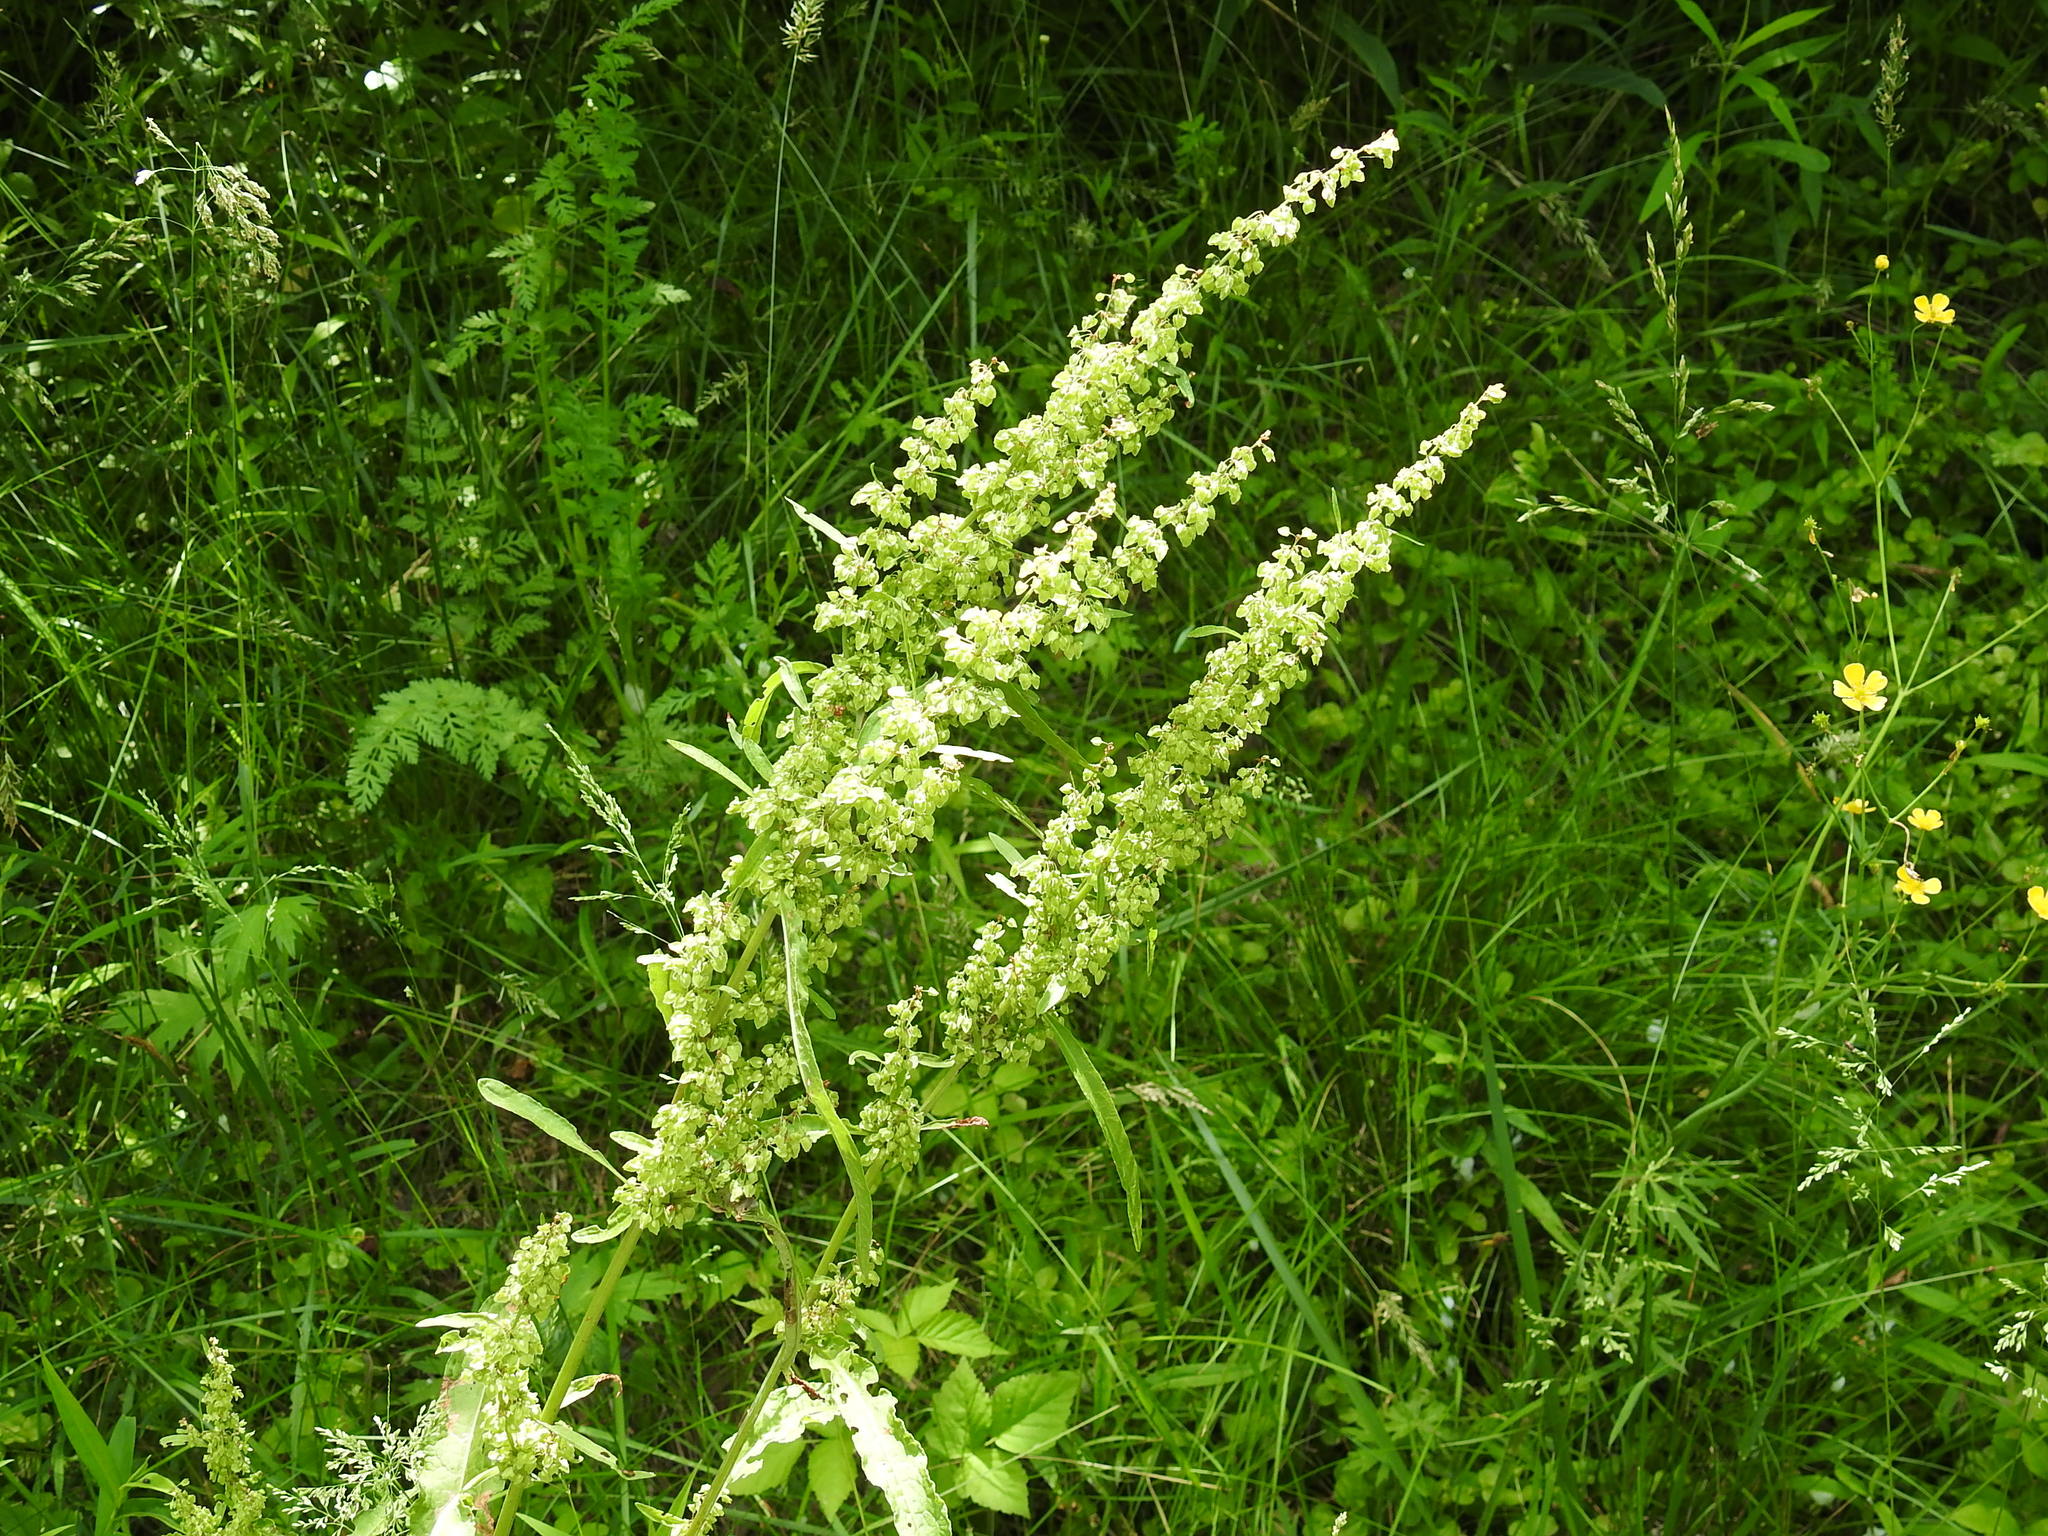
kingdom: Plantae
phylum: Tracheophyta
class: Magnoliopsida
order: Caryophyllales
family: Polygonaceae
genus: Rumex
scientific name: Rumex crispus
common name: Curled dock
